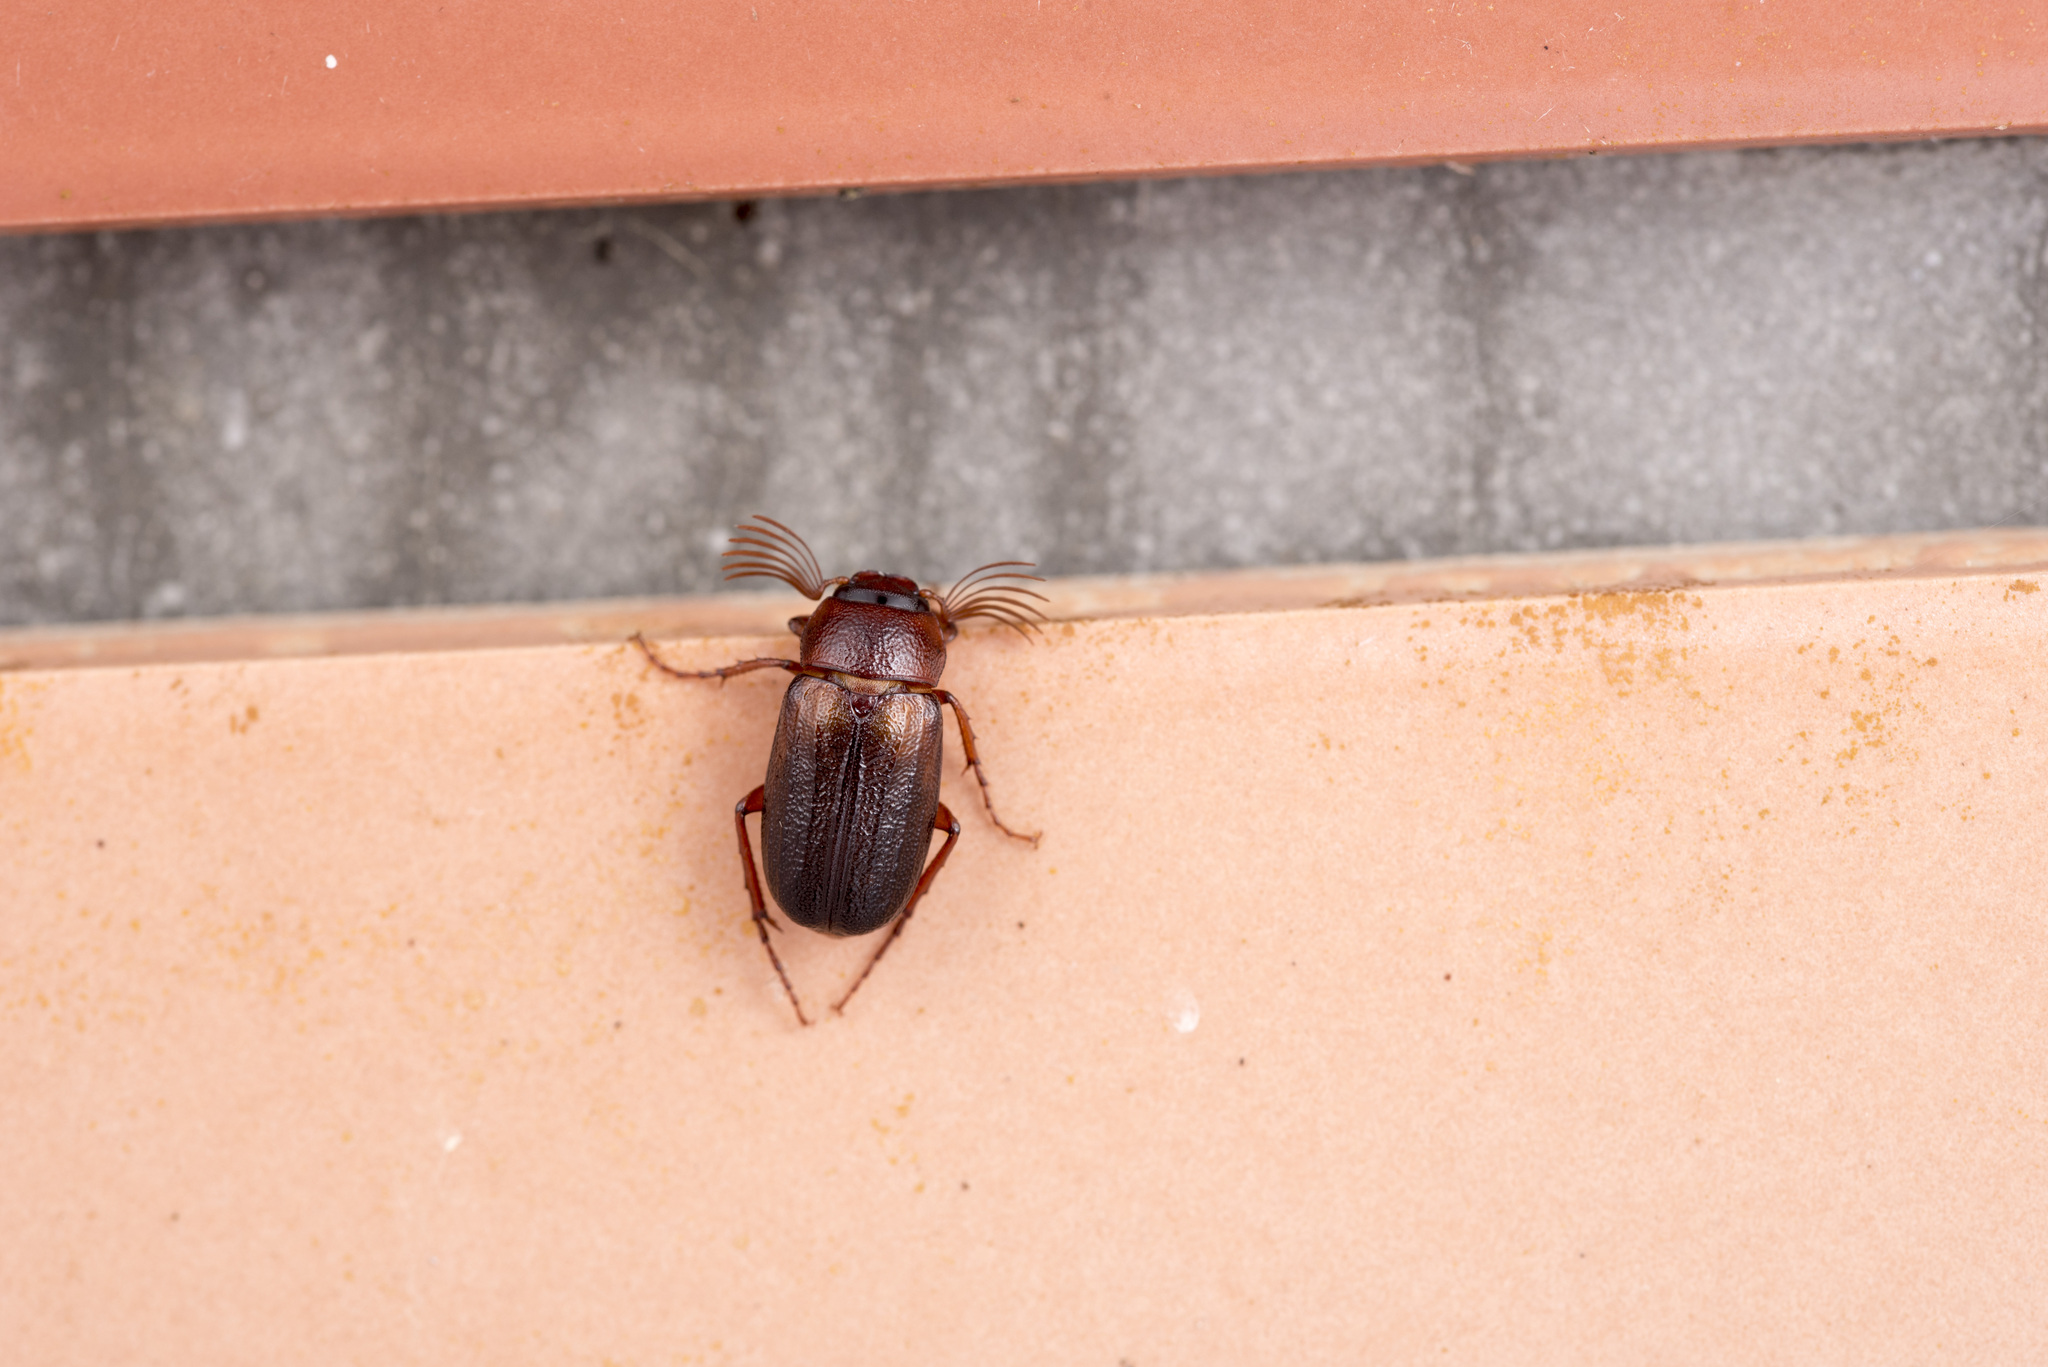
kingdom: Animalia
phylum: Arthropoda
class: Insecta
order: Coleoptera
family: Scarabaeidae
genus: Hexataenius
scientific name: Hexataenius ezakii
